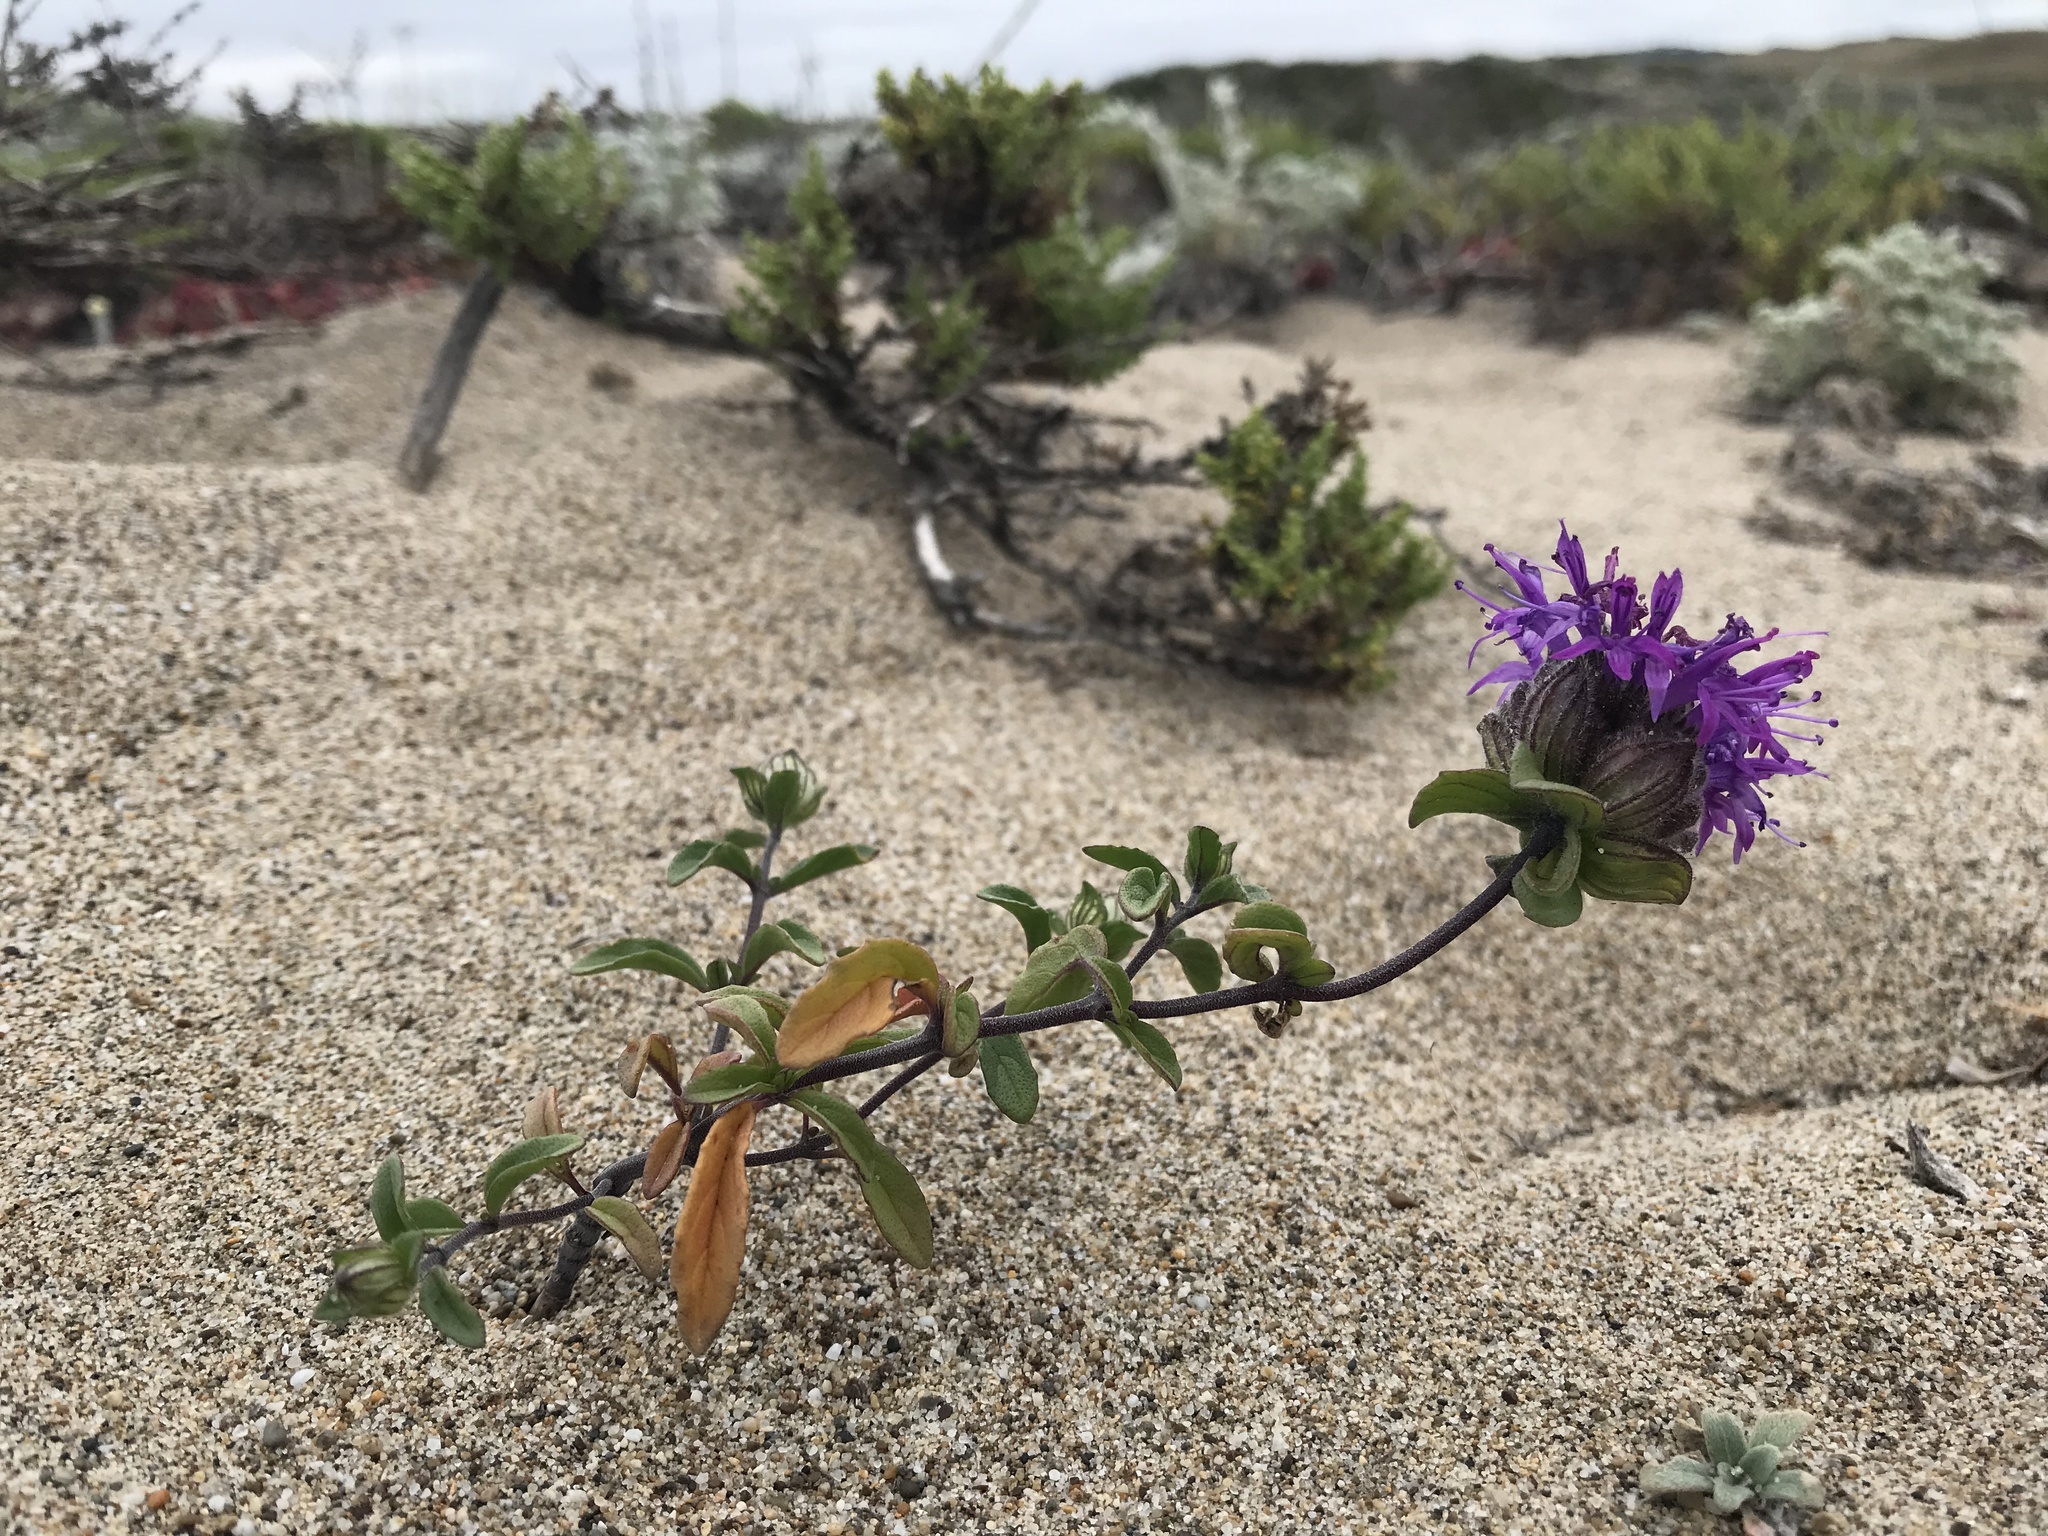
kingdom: Plantae
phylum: Tracheophyta
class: Magnoliopsida
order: Lamiales
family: Lamiaceae
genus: Monardella
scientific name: Monardella sinuata
